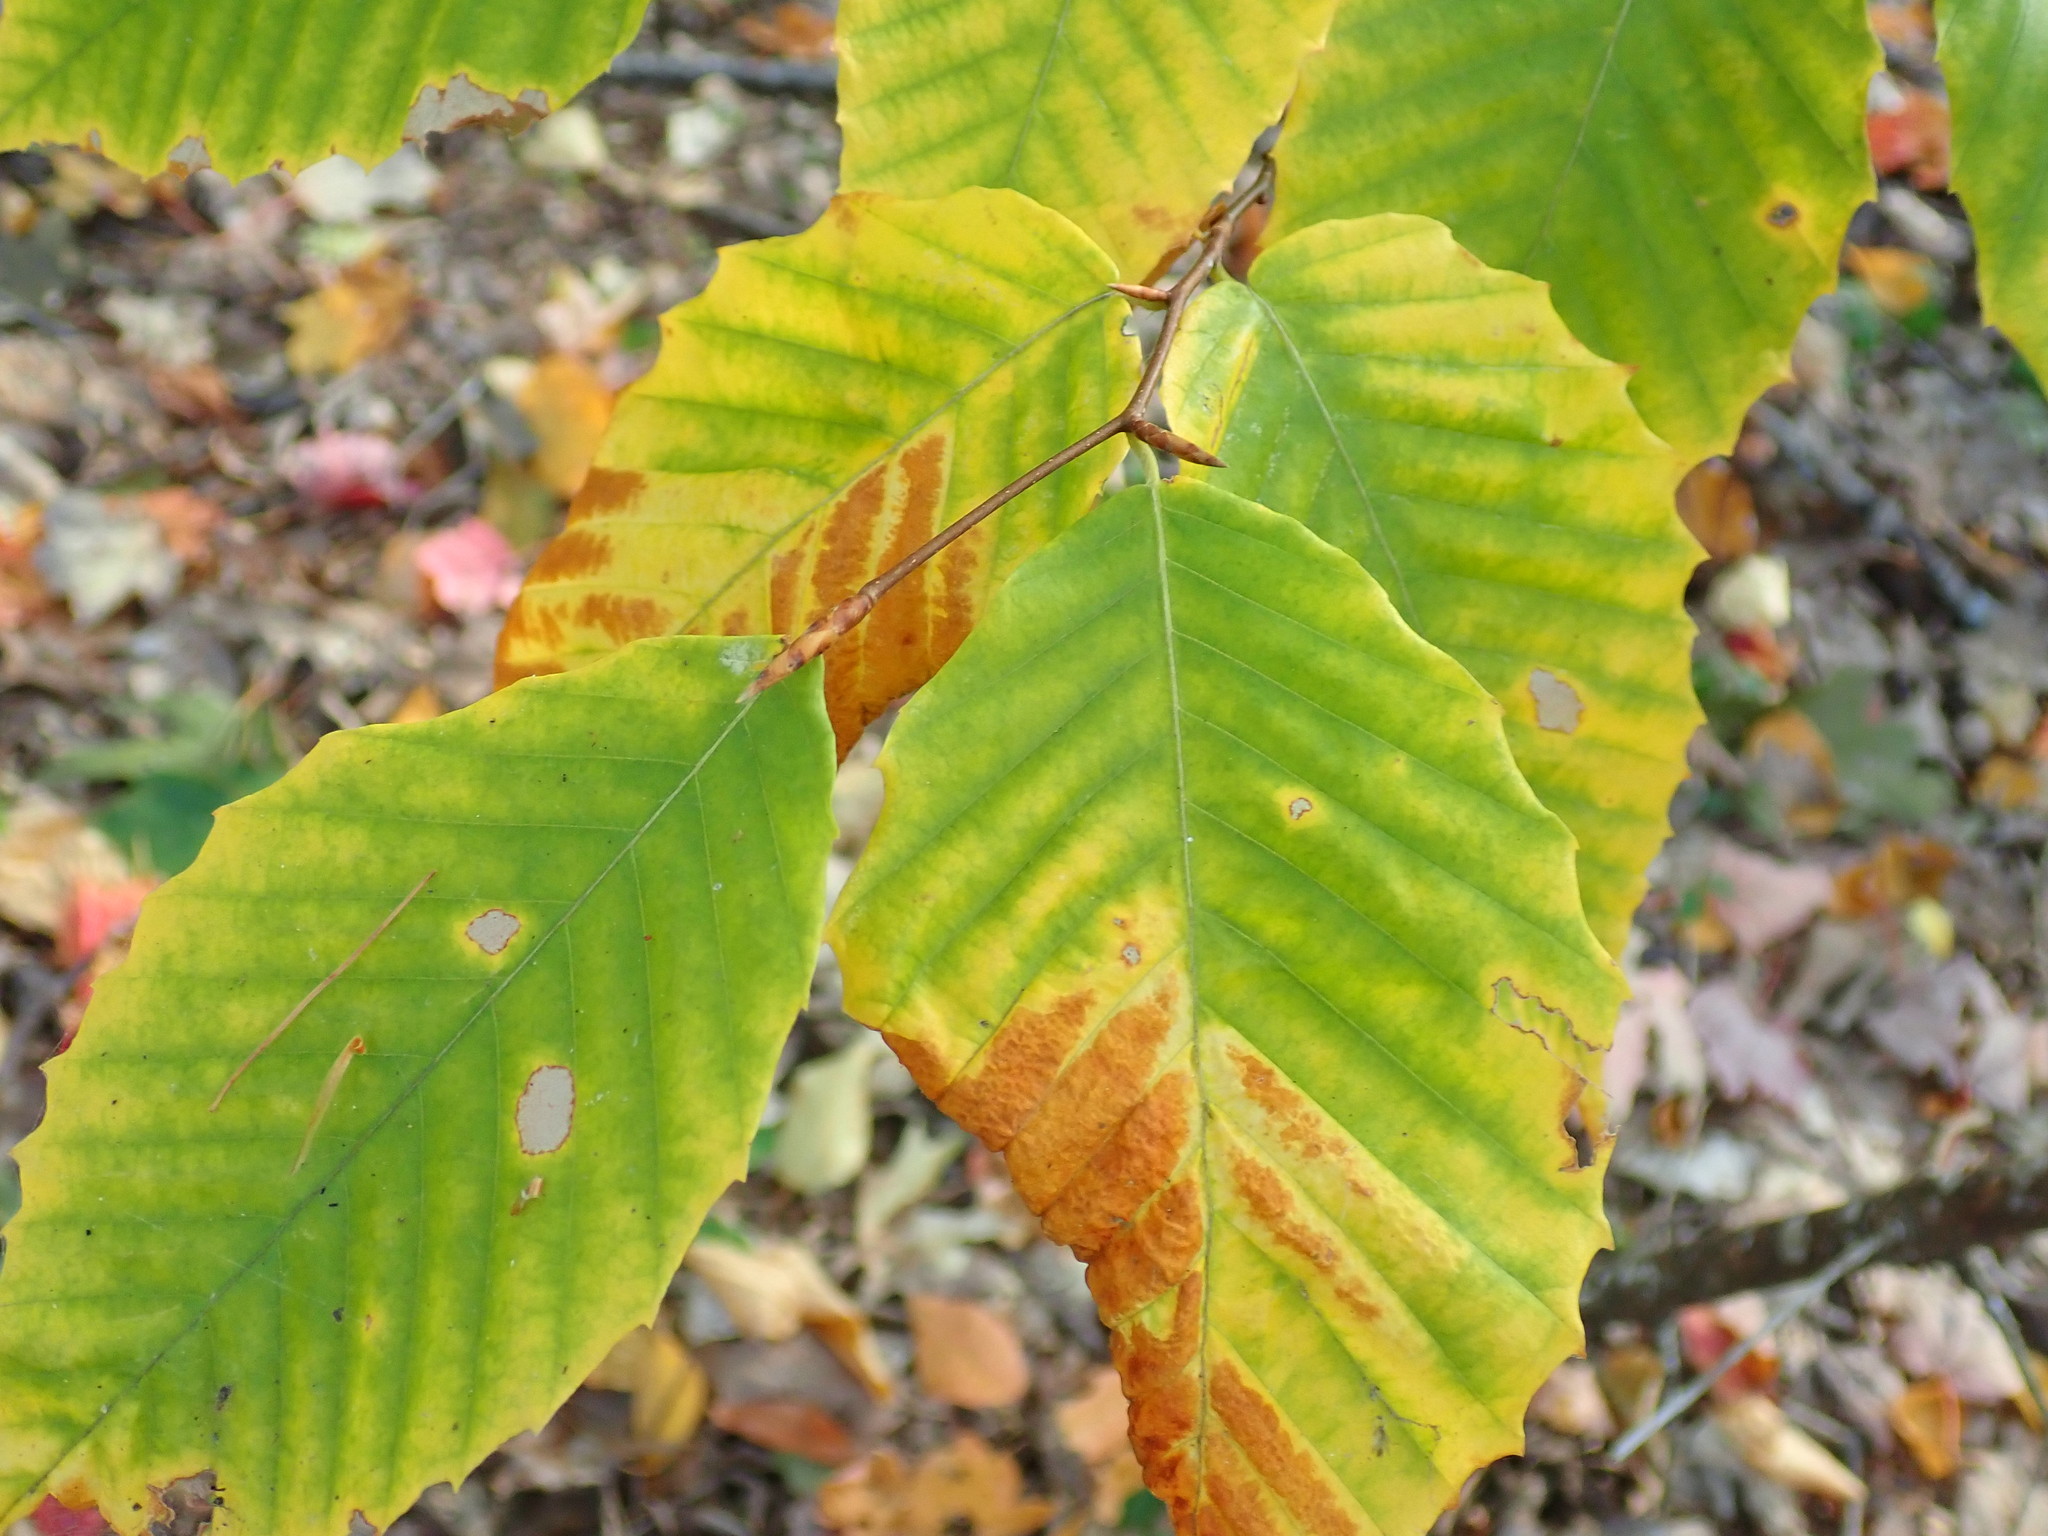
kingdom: Plantae
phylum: Tracheophyta
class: Magnoliopsida
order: Fagales
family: Fagaceae
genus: Fagus
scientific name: Fagus grandifolia
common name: American beech
